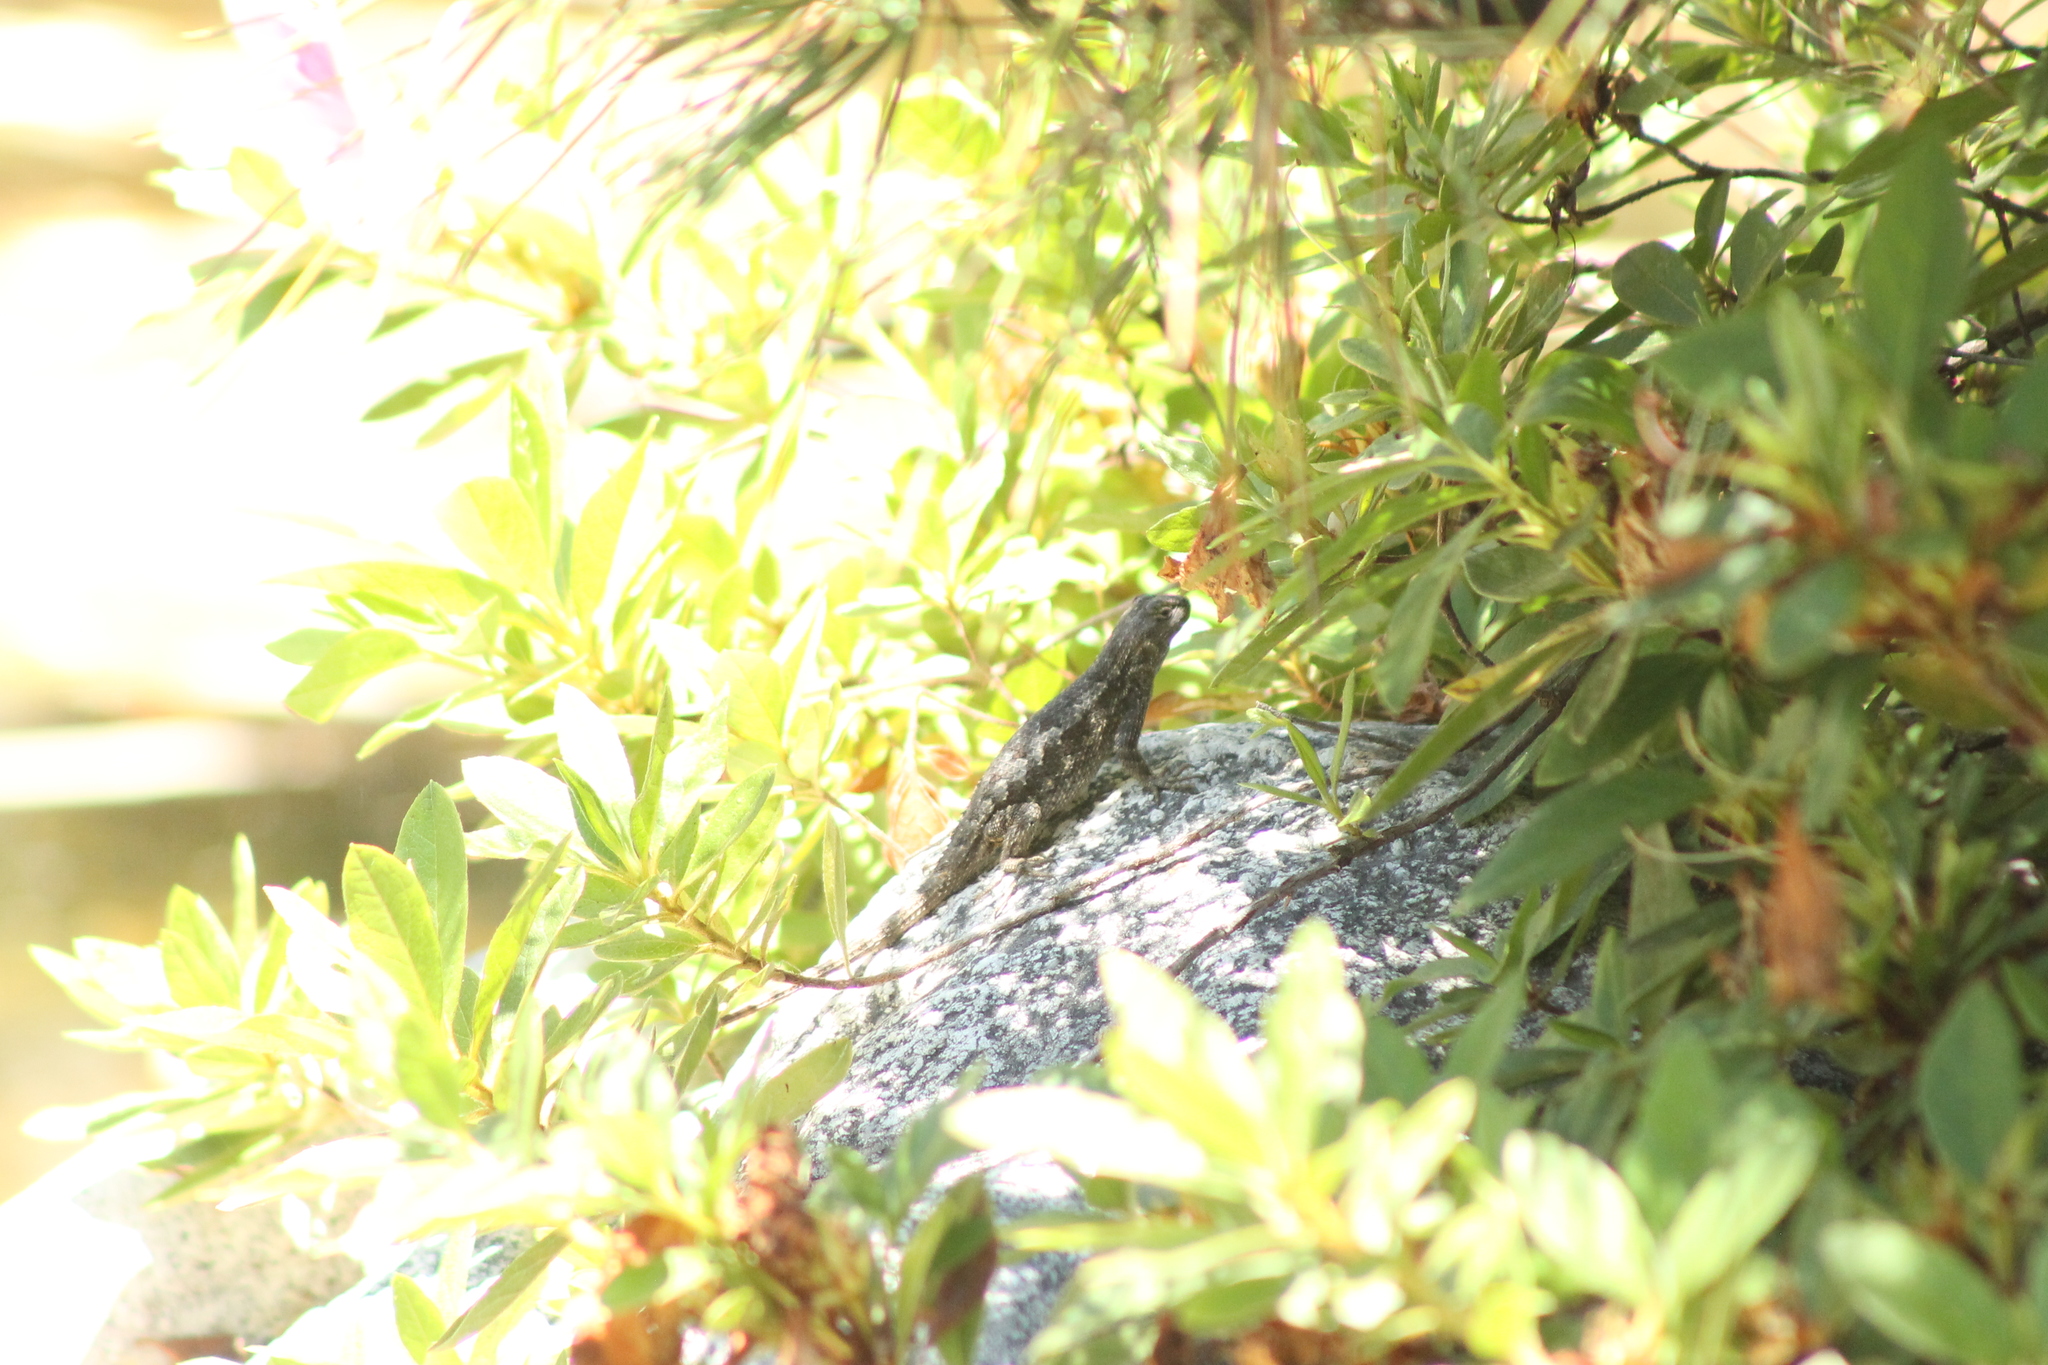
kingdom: Animalia
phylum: Chordata
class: Squamata
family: Phrynosomatidae
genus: Sceloporus
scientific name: Sceloporus occidentalis
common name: Western fence lizard
